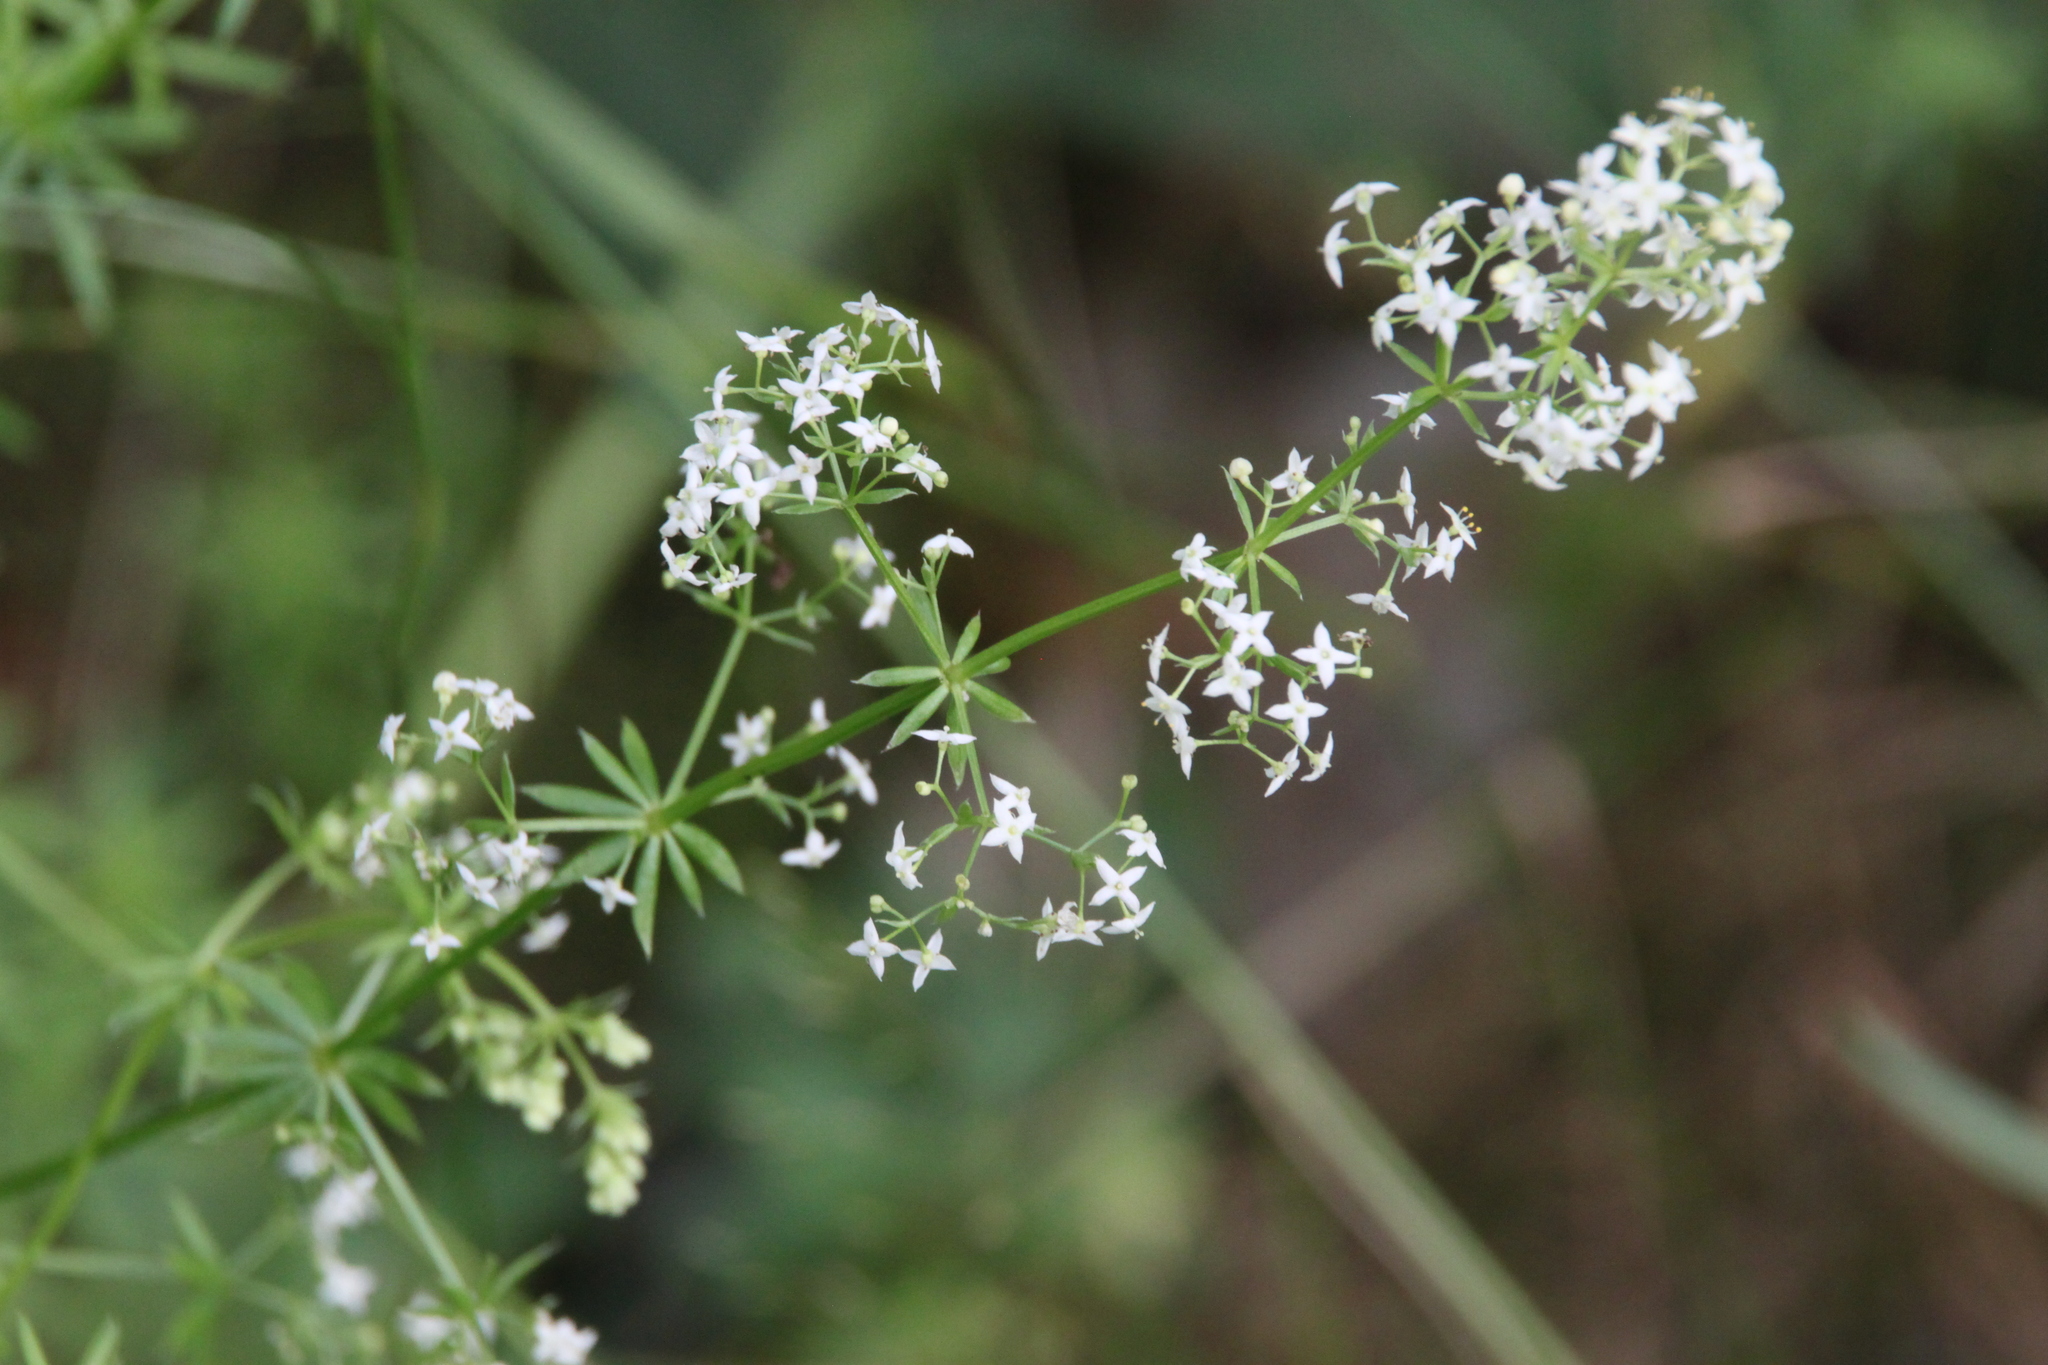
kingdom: Plantae
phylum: Tracheophyta
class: Magnoliopsida
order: Gentianales
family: Rubiaceae
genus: Galium
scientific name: Galium mollugo
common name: Hedge bedstraw
